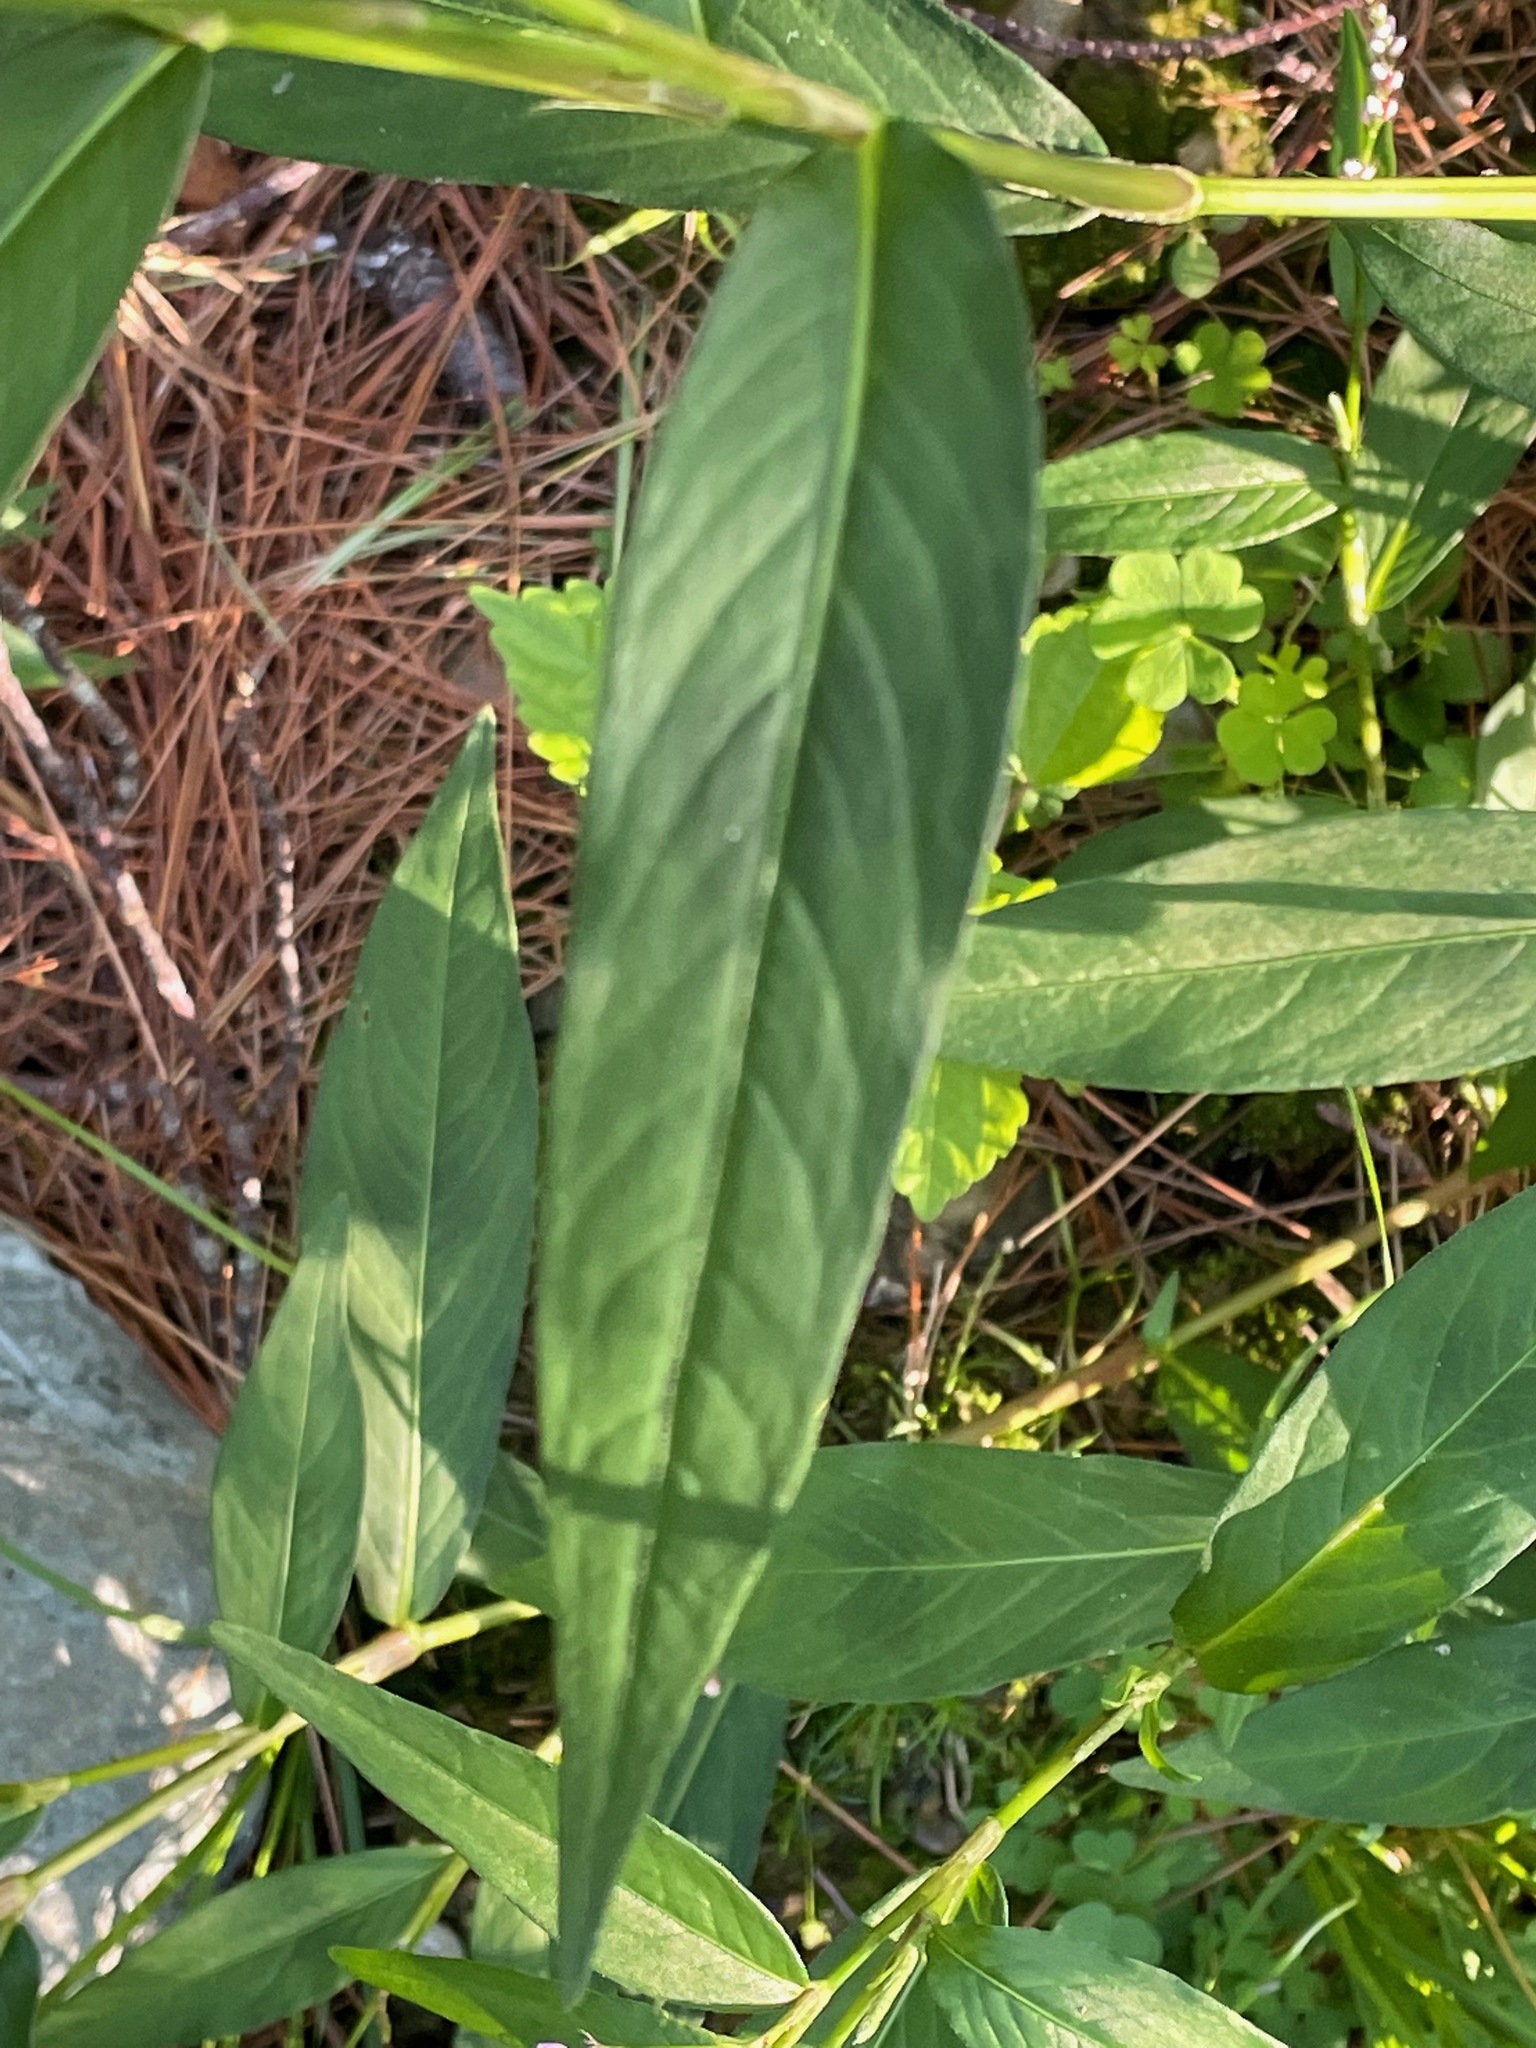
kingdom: Plantae
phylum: Tracheophyta
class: Magnoliopsida
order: Caryophyllales
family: Polygonaceae
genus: Persicaria
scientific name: Persicaria longiseta
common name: Bristly lady's-thumb
